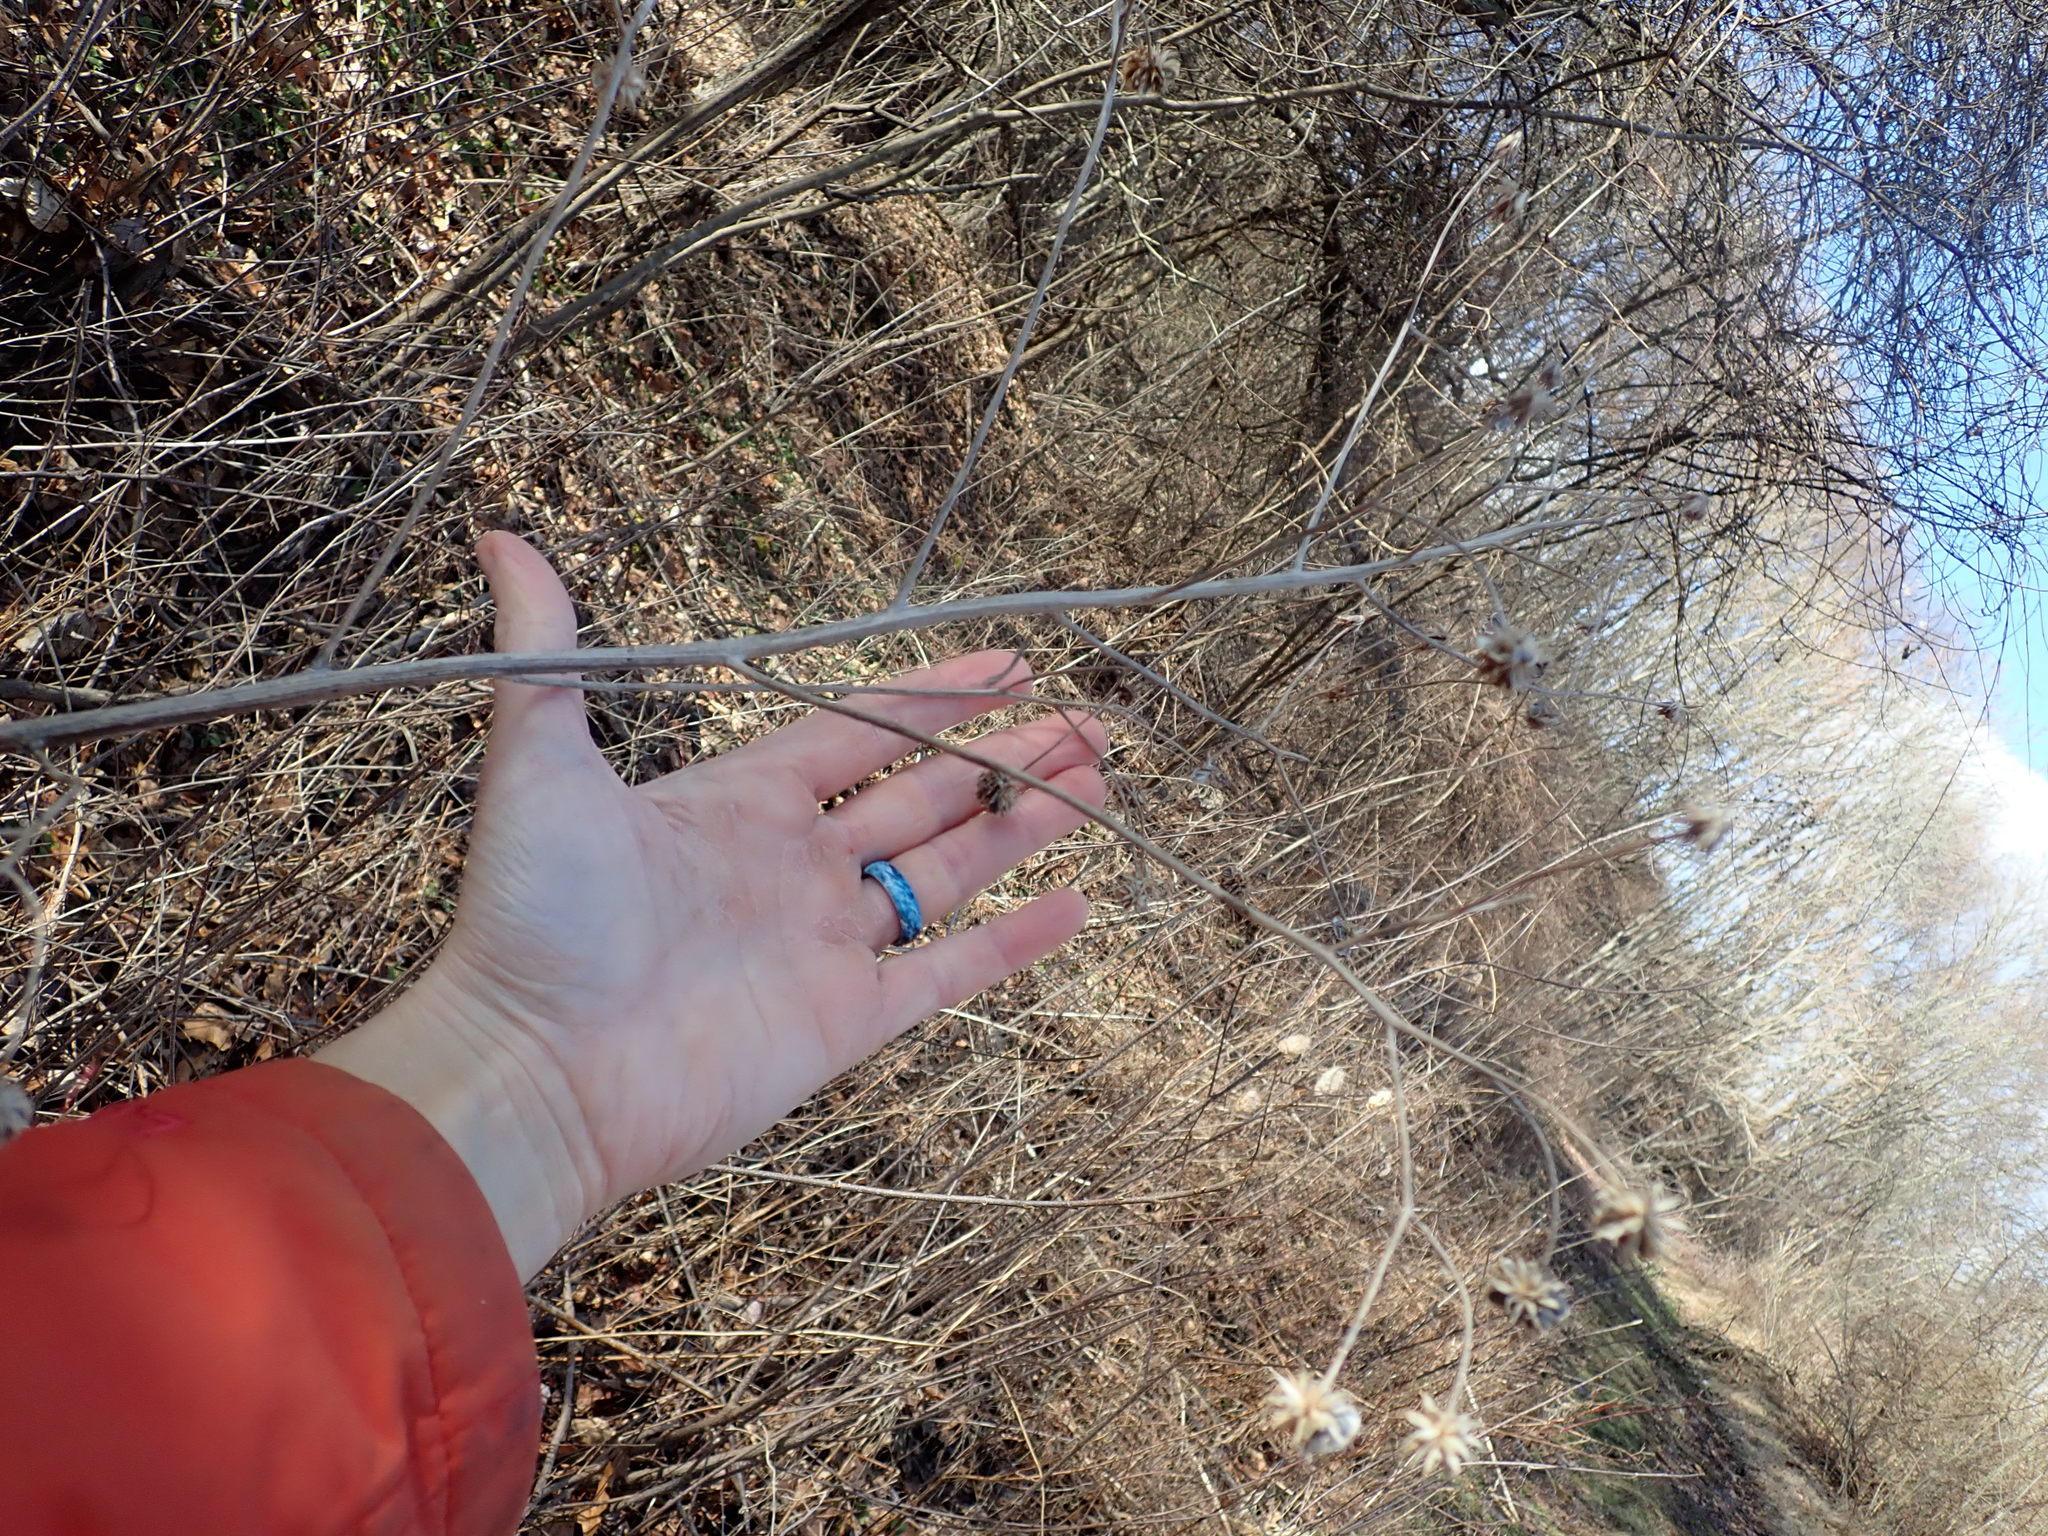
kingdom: Plantae
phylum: Tracheophyta
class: Magnoliopsida
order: Asterales
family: Asteraceae
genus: Verbesina
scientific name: Verbesina alternifolia
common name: Wingstem
